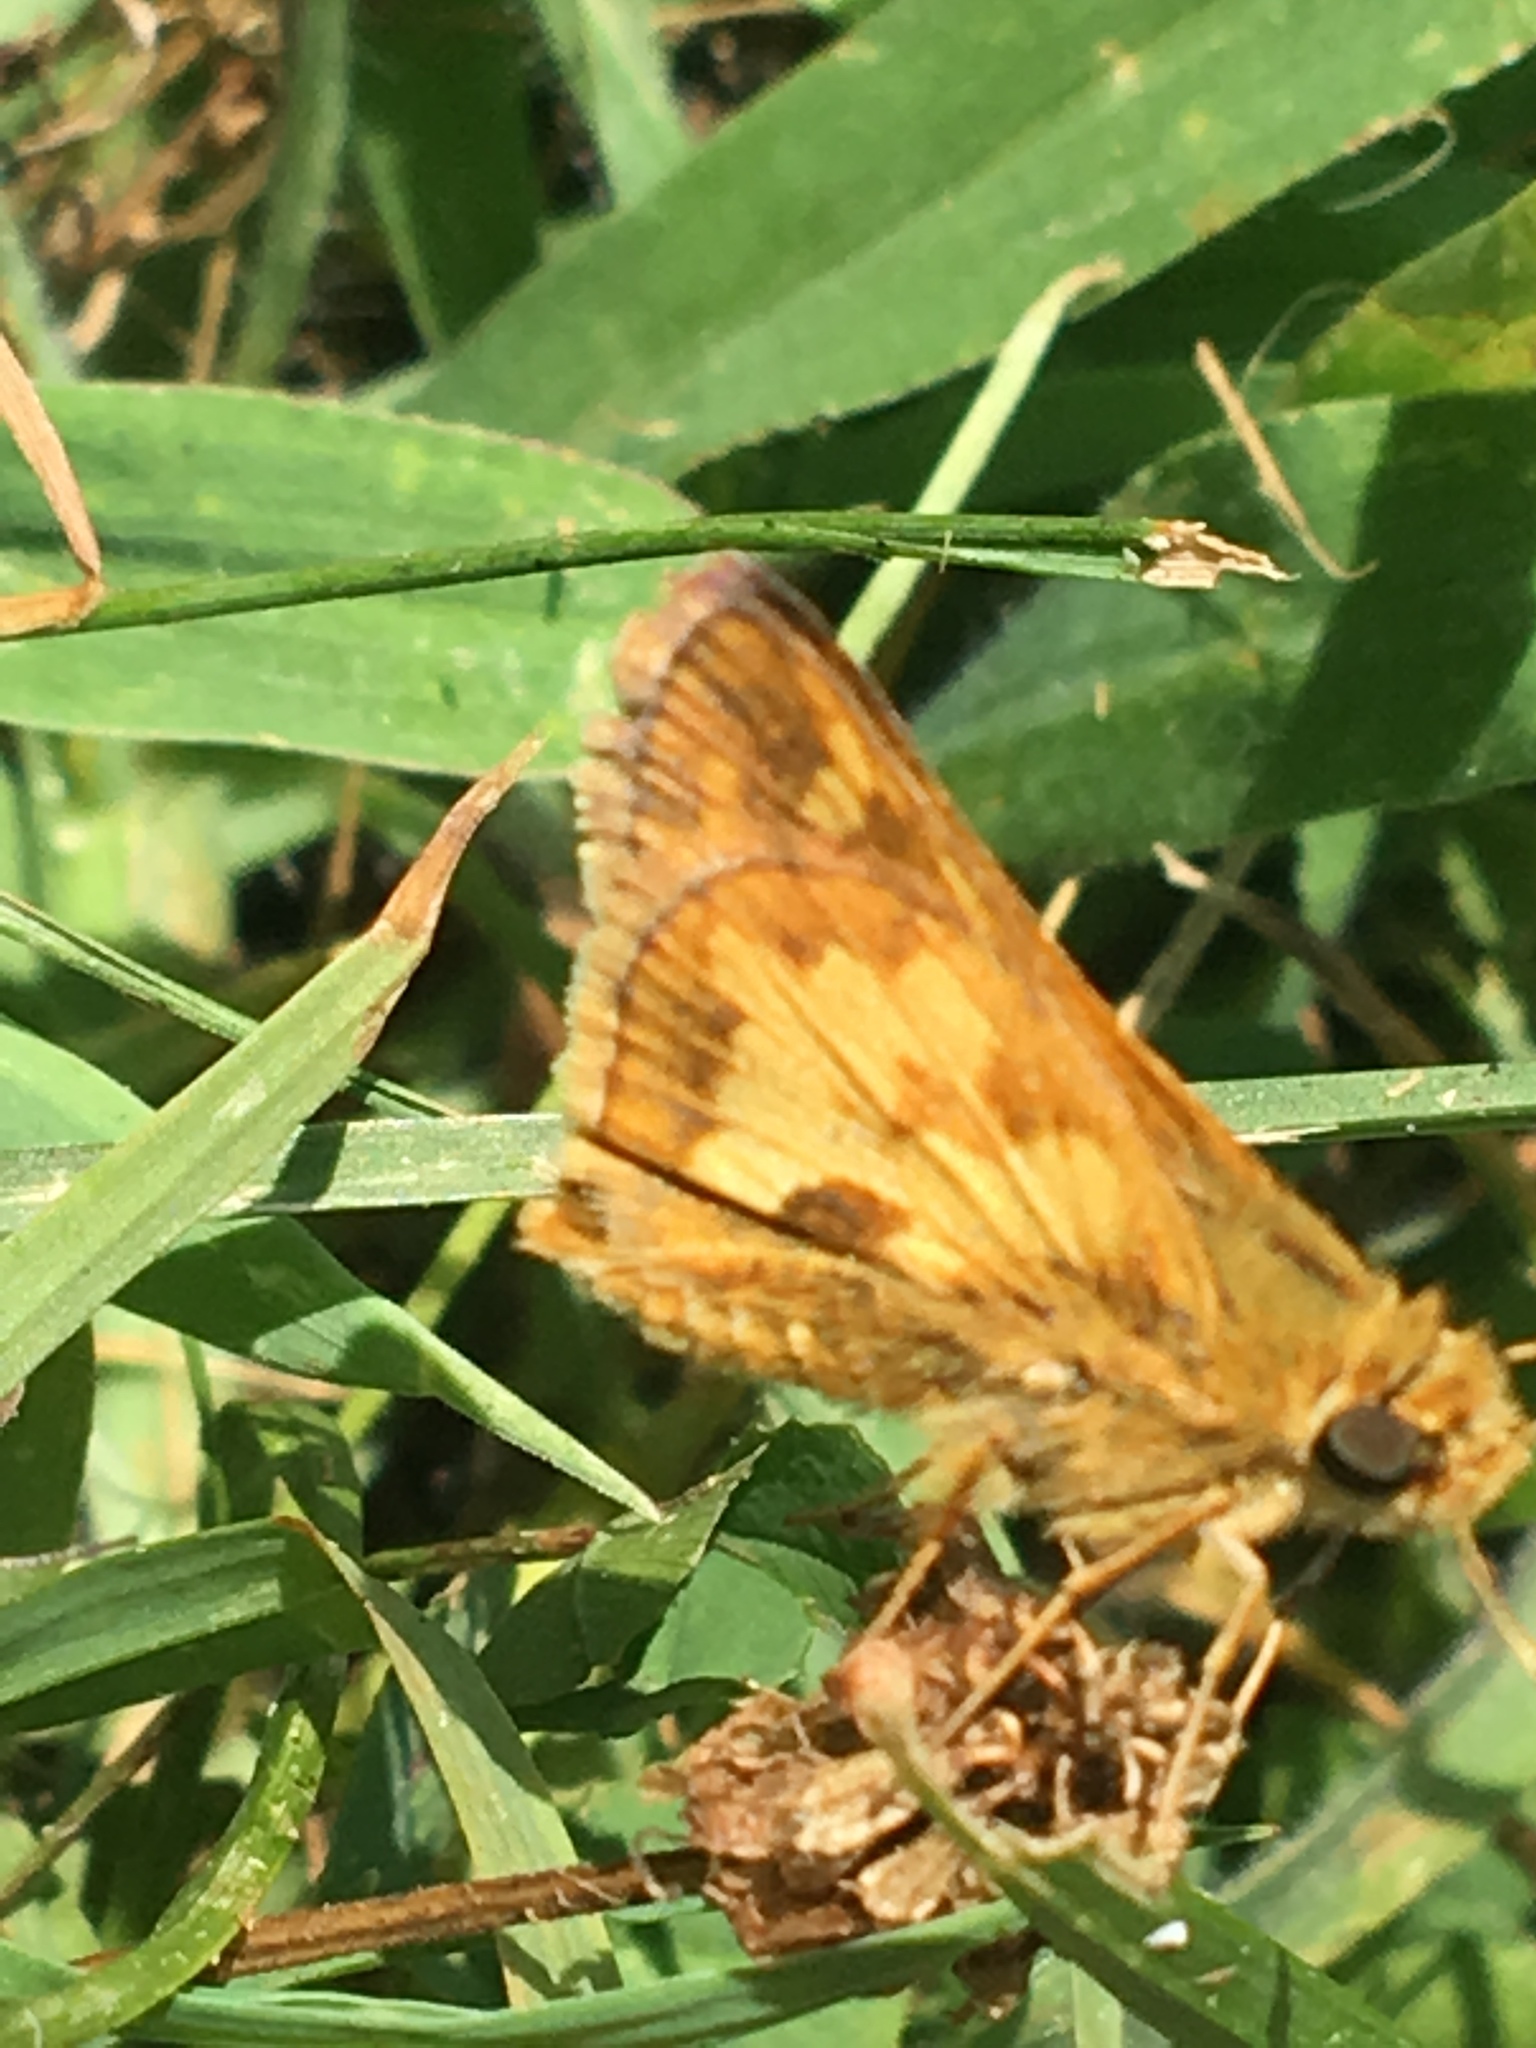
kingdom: Animalia
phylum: Arthropoda
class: Insecta
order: Lepidoptera
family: Hesperiidae
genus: Polites
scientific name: Polites coras
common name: Peck's skipper
